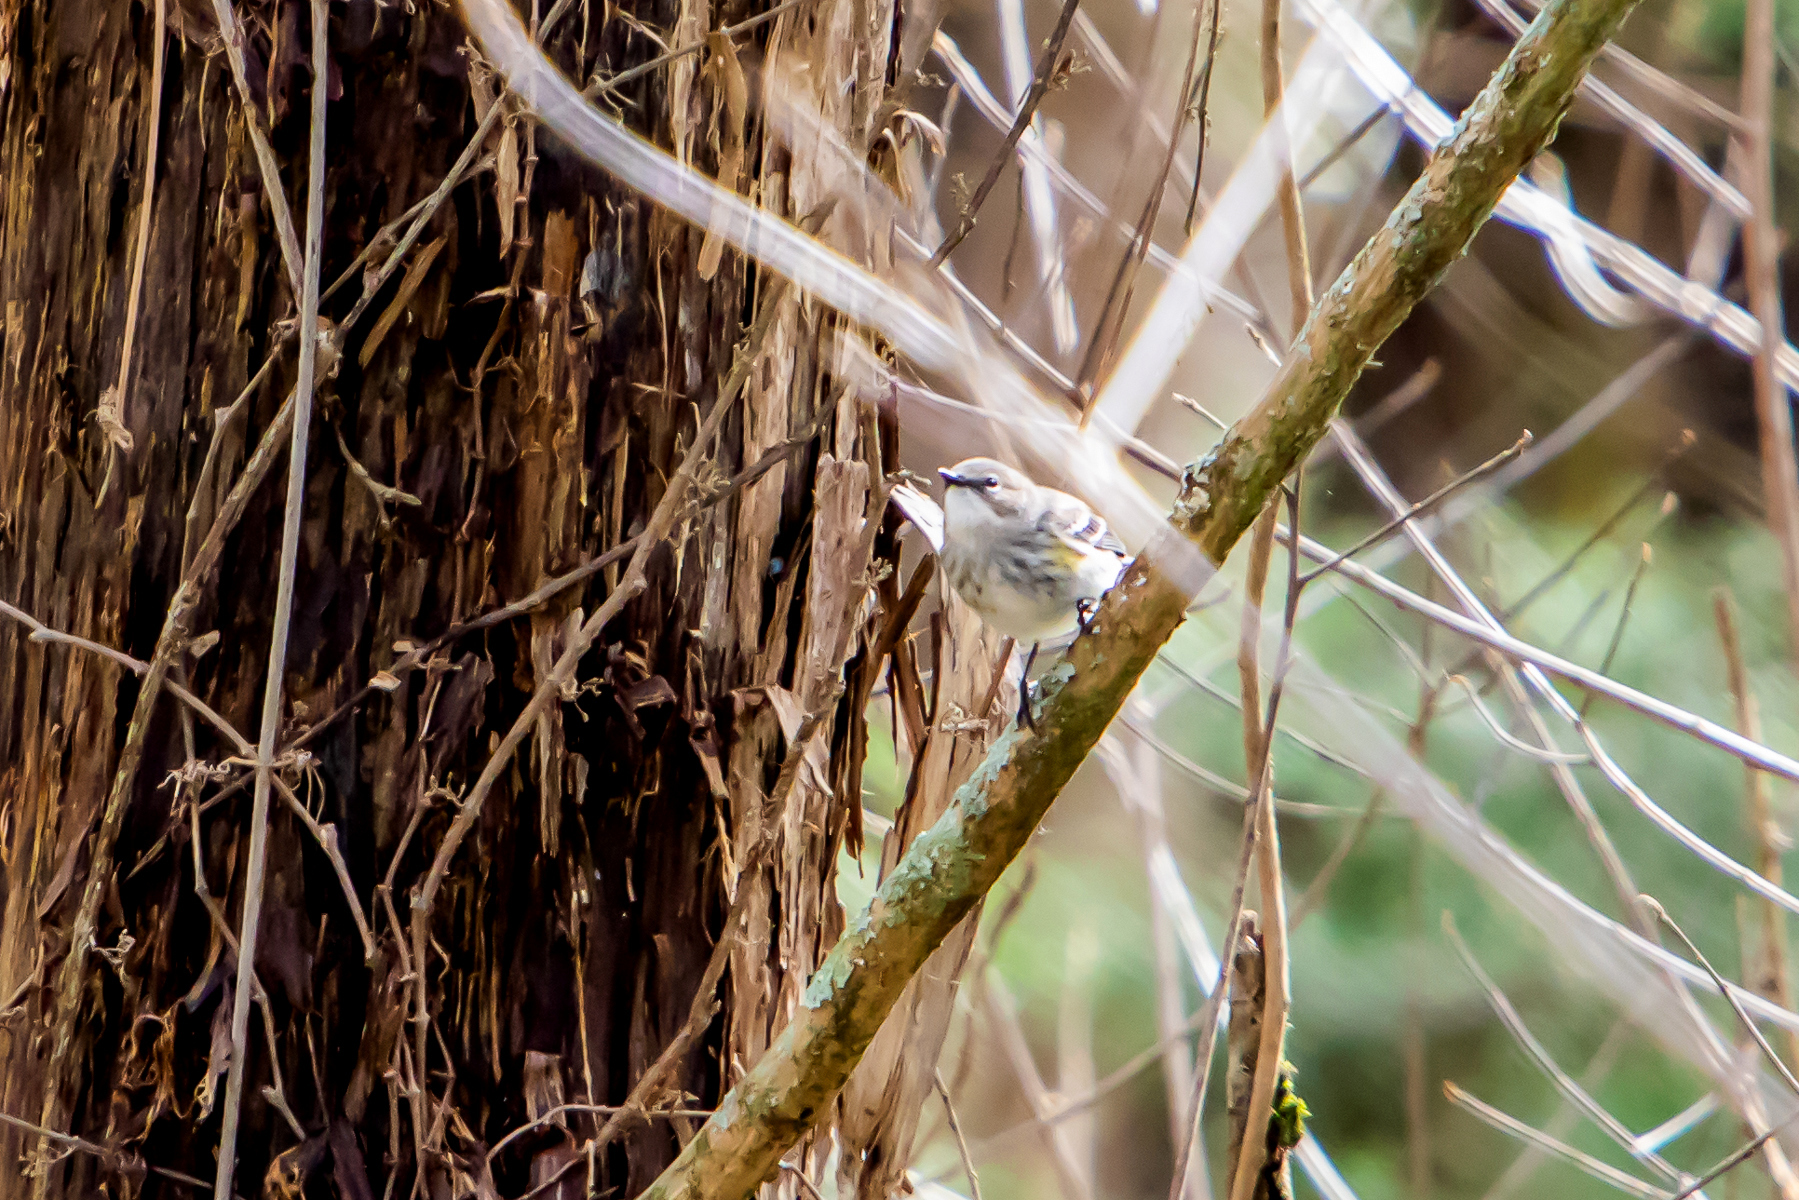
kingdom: Animalia
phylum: Chordata
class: Aves
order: Passeriformes
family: Parulidae
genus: Setophaga
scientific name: Setophaga coronata
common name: Myrtle warbler
